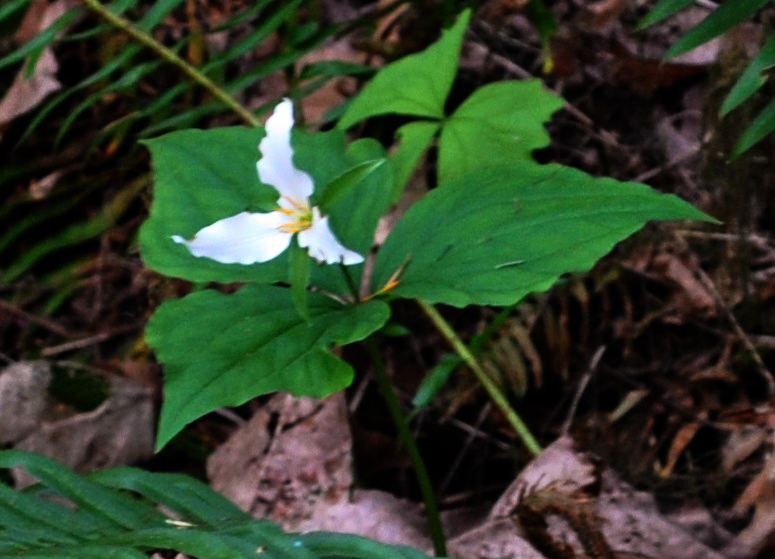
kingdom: Plantae
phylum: Tracheophyta
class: Liliopsida
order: Liliales
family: Melanthiaceae
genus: Trillium
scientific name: Trillium ovatum
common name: Pacific trillium
